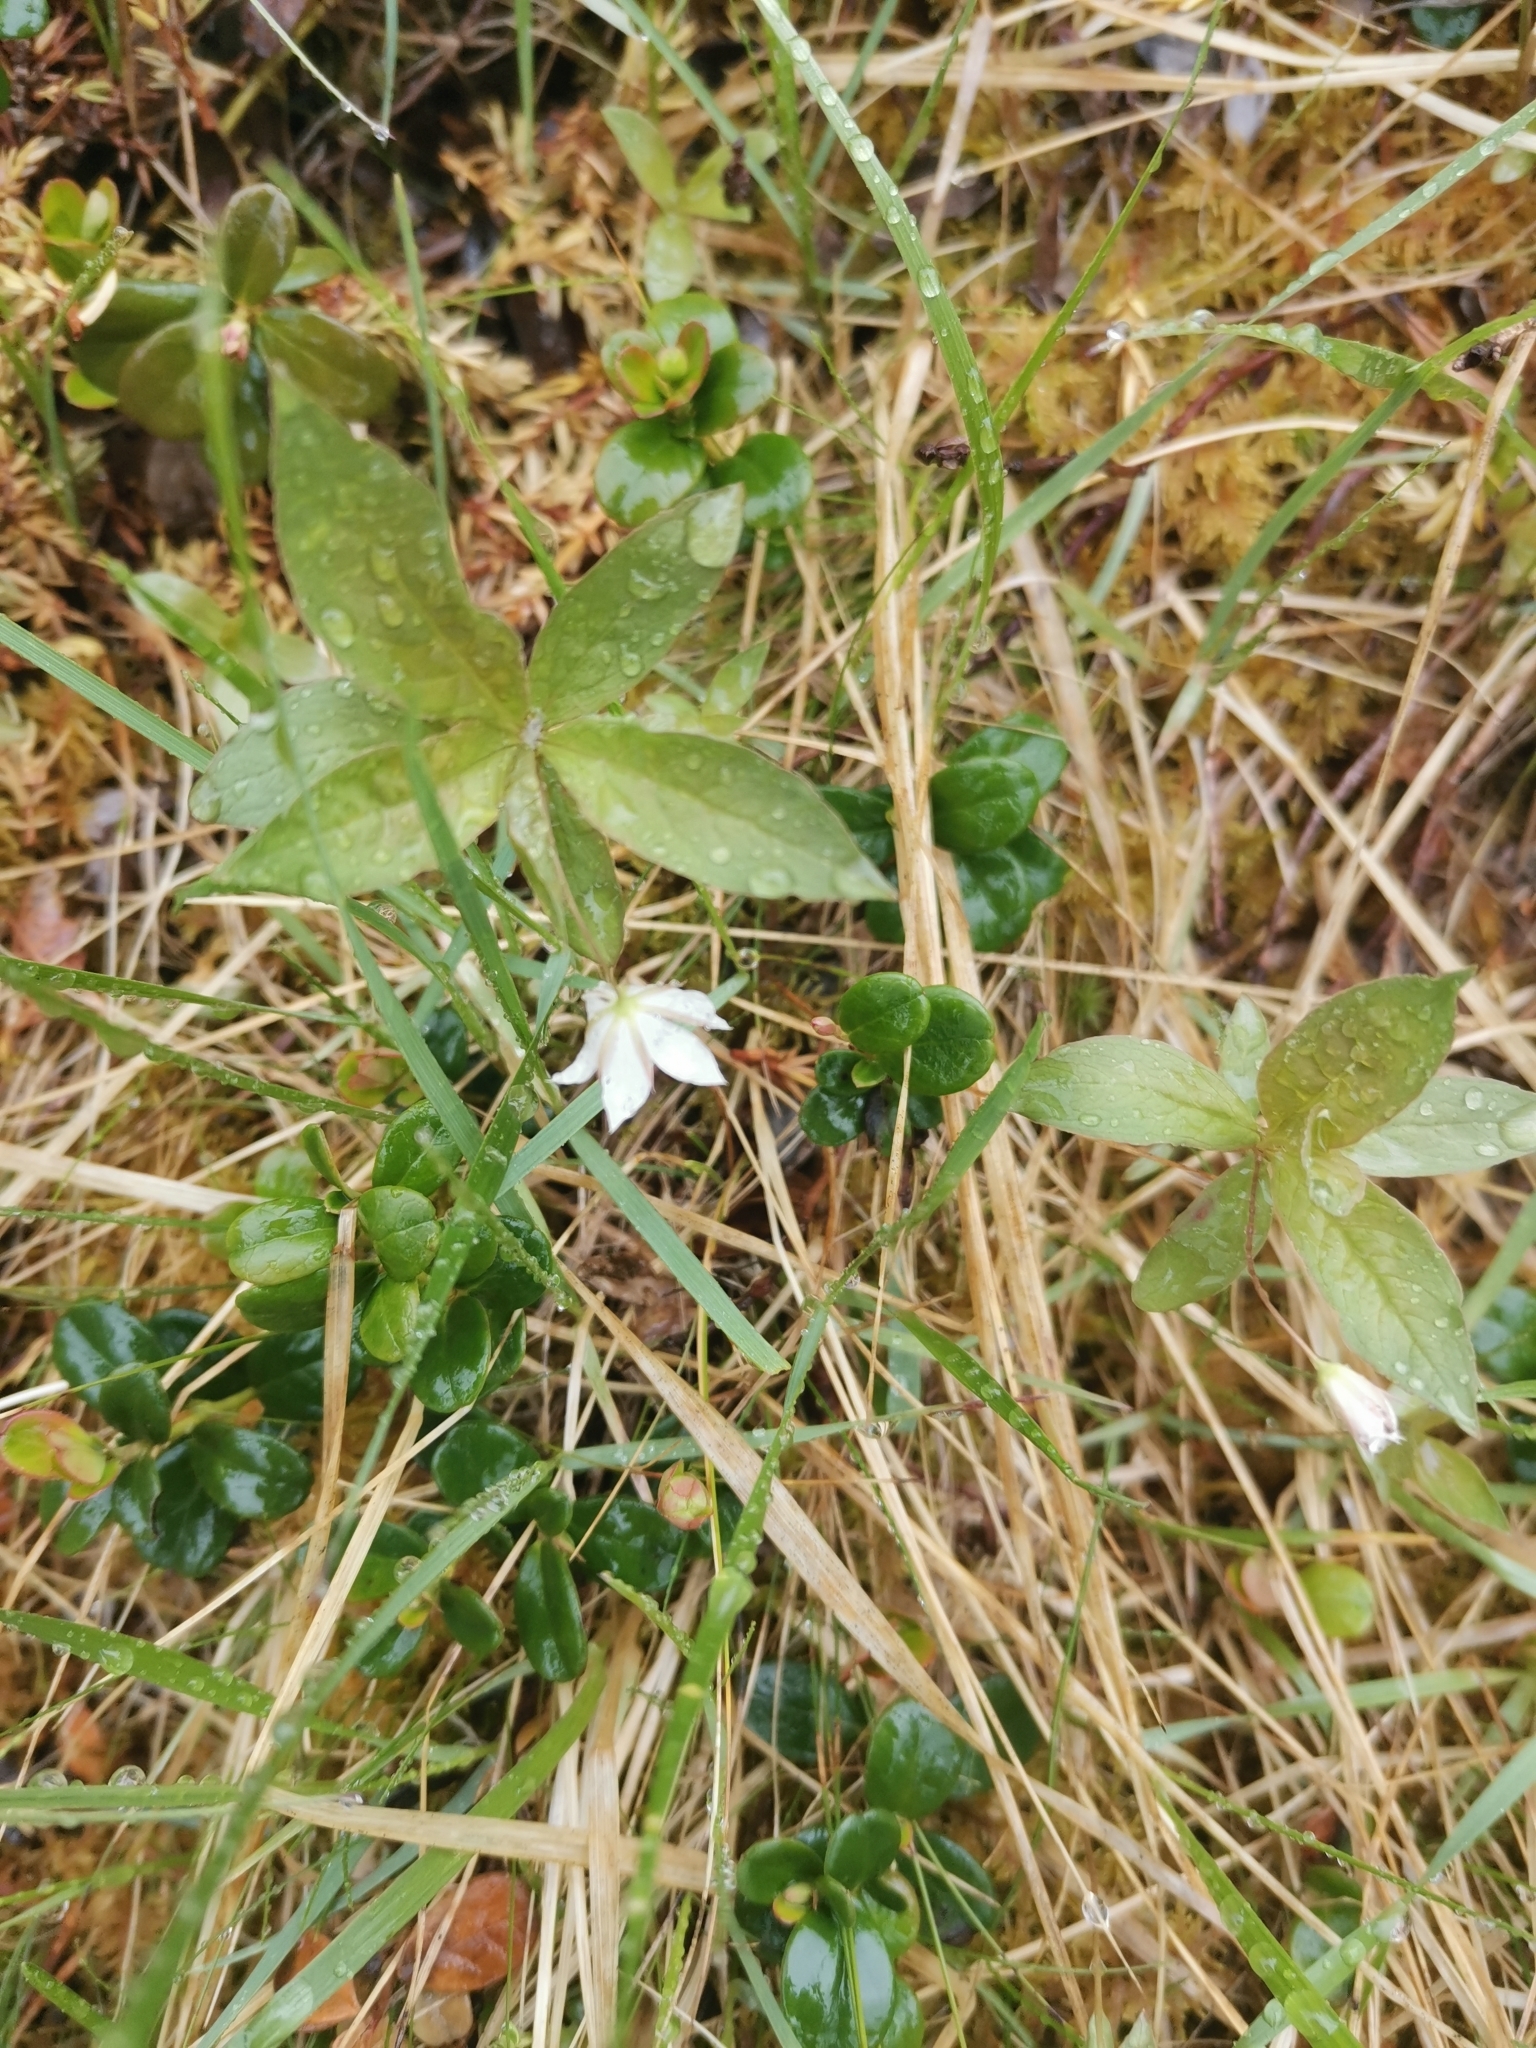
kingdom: Plantae
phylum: Tracheophyta
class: Magnoliopsida
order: Ericales
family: Primulaceae
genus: Lysimachia
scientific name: Lysimachia europaea
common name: Arctic starflower
